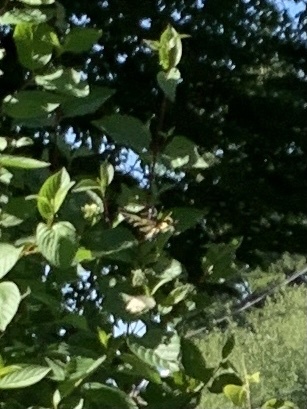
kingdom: Animalia
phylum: Arthropoda
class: Insecta
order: Lepidoptera
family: Papilionidae
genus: Papilio
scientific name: Papilio rutulus
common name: Western tiger swallowtail
